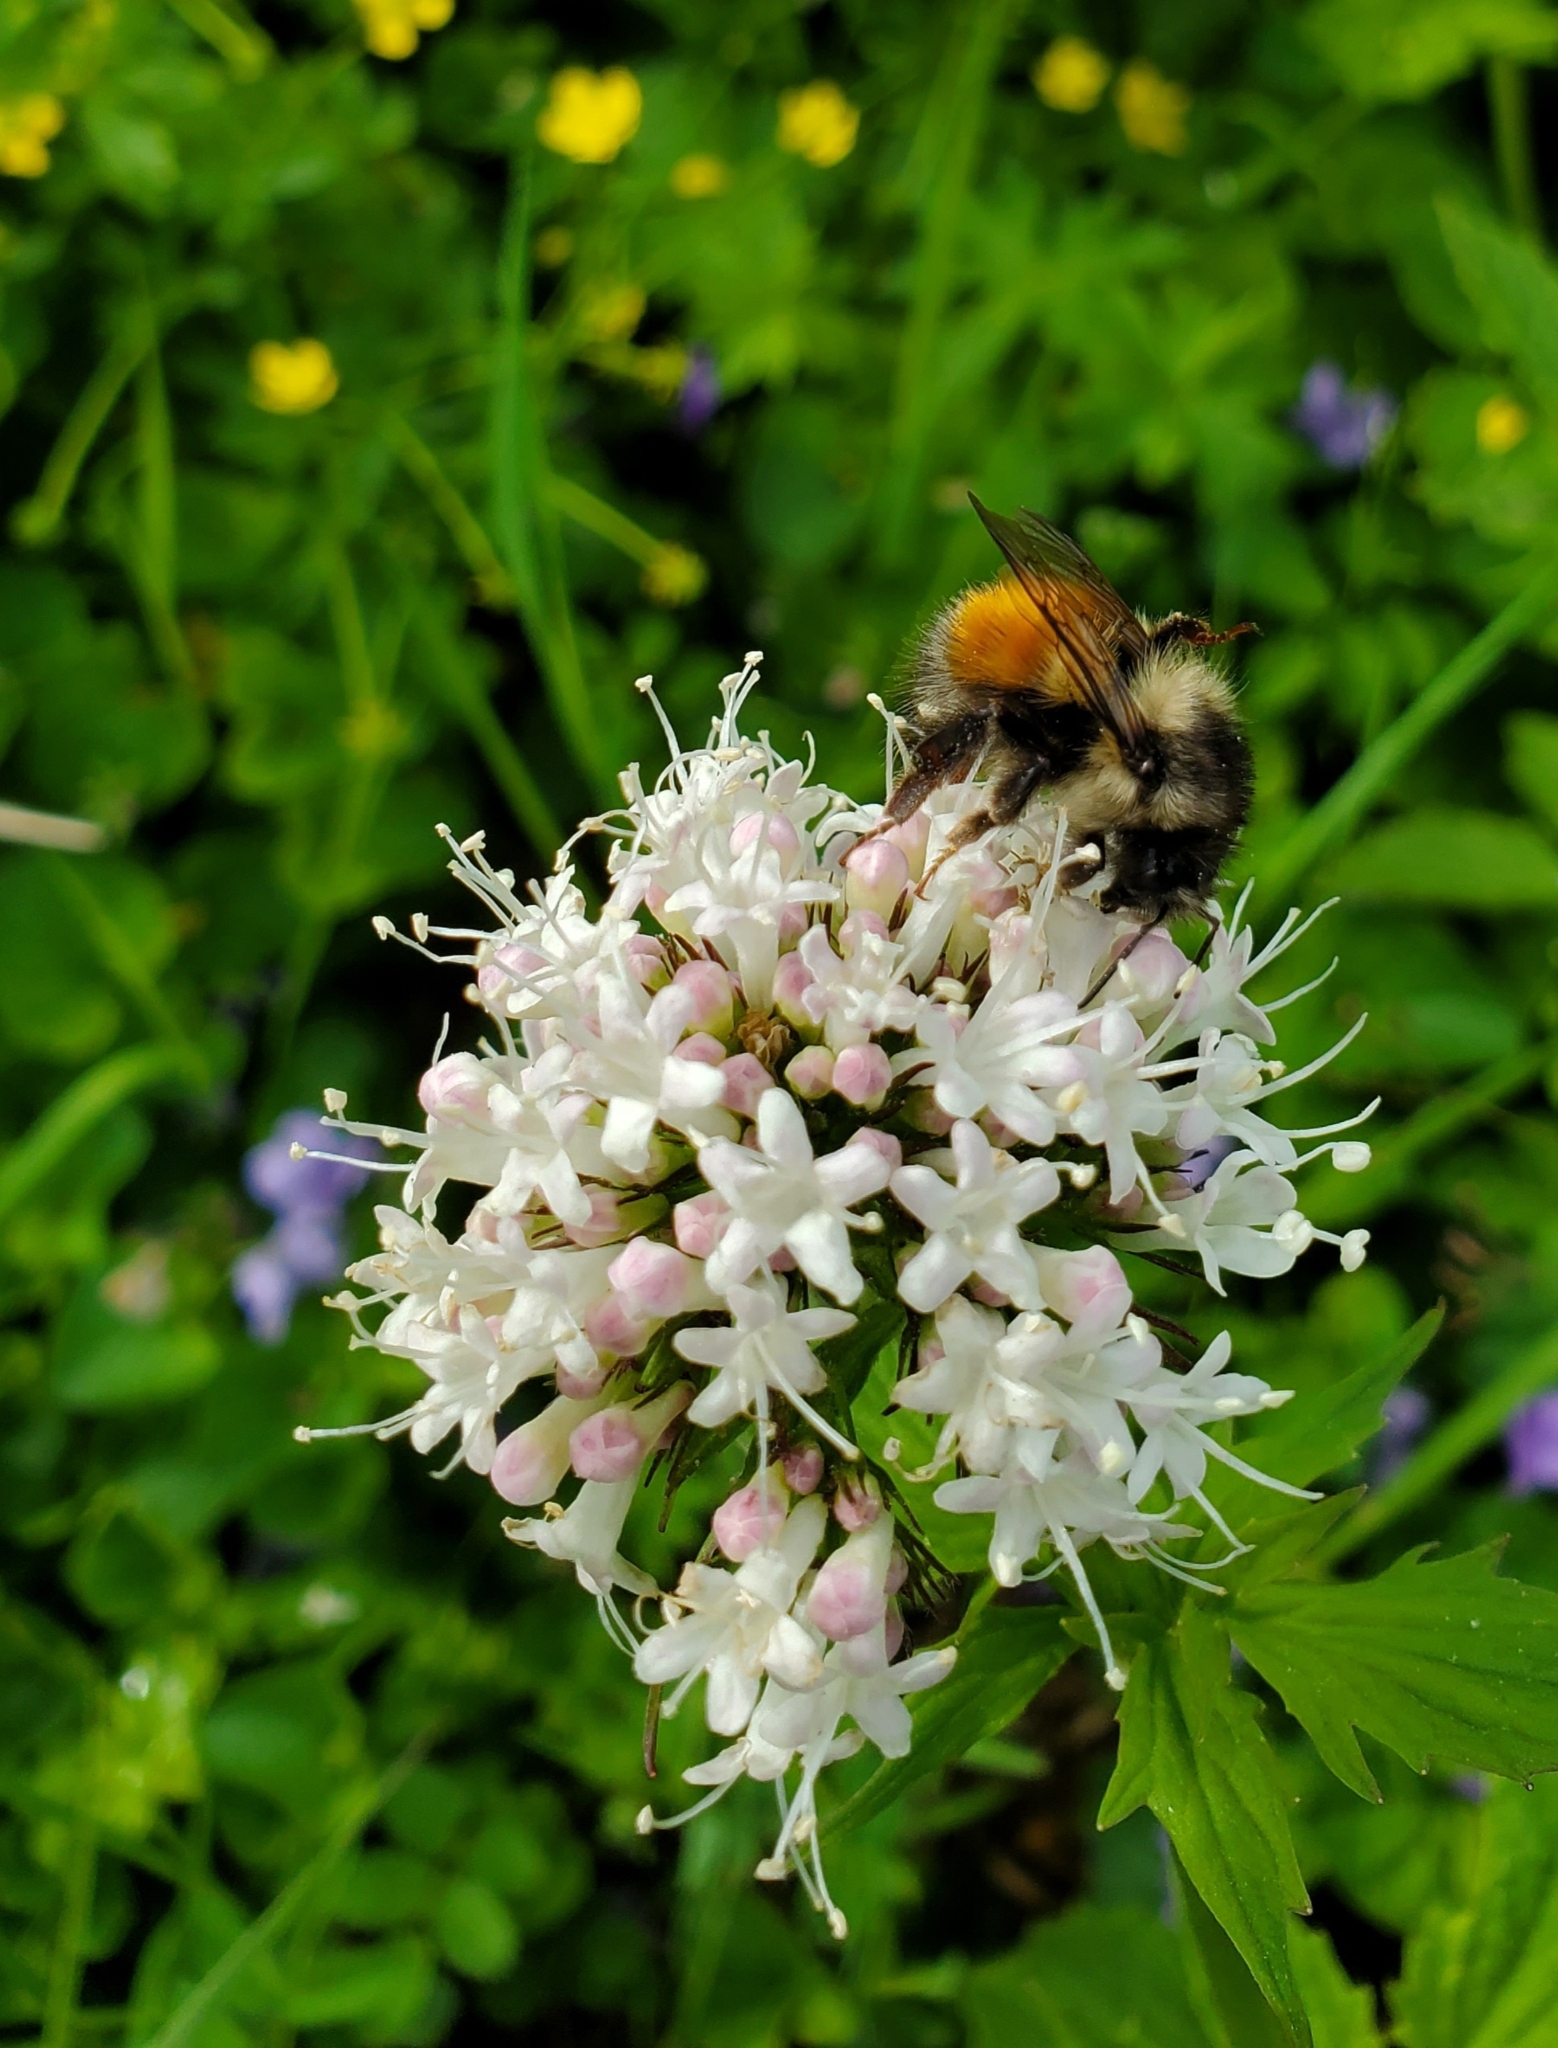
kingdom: Animalia
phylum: Arthropoda
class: Insecta
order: Hymenoptera
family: Apidae
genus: Bombus
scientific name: Bombus melanopygus
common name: Black tail bumble bee
